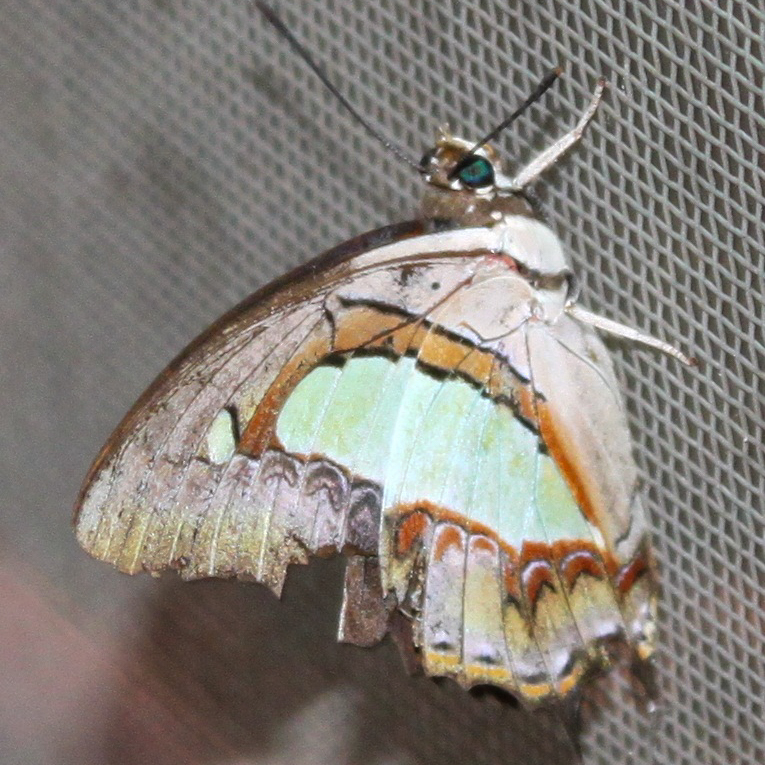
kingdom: Animalia
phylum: Arthropoda
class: Insecta
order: Lepidoptera
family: Nymphalidae
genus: Polyura
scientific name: Polyura athamas
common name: Common nawab
